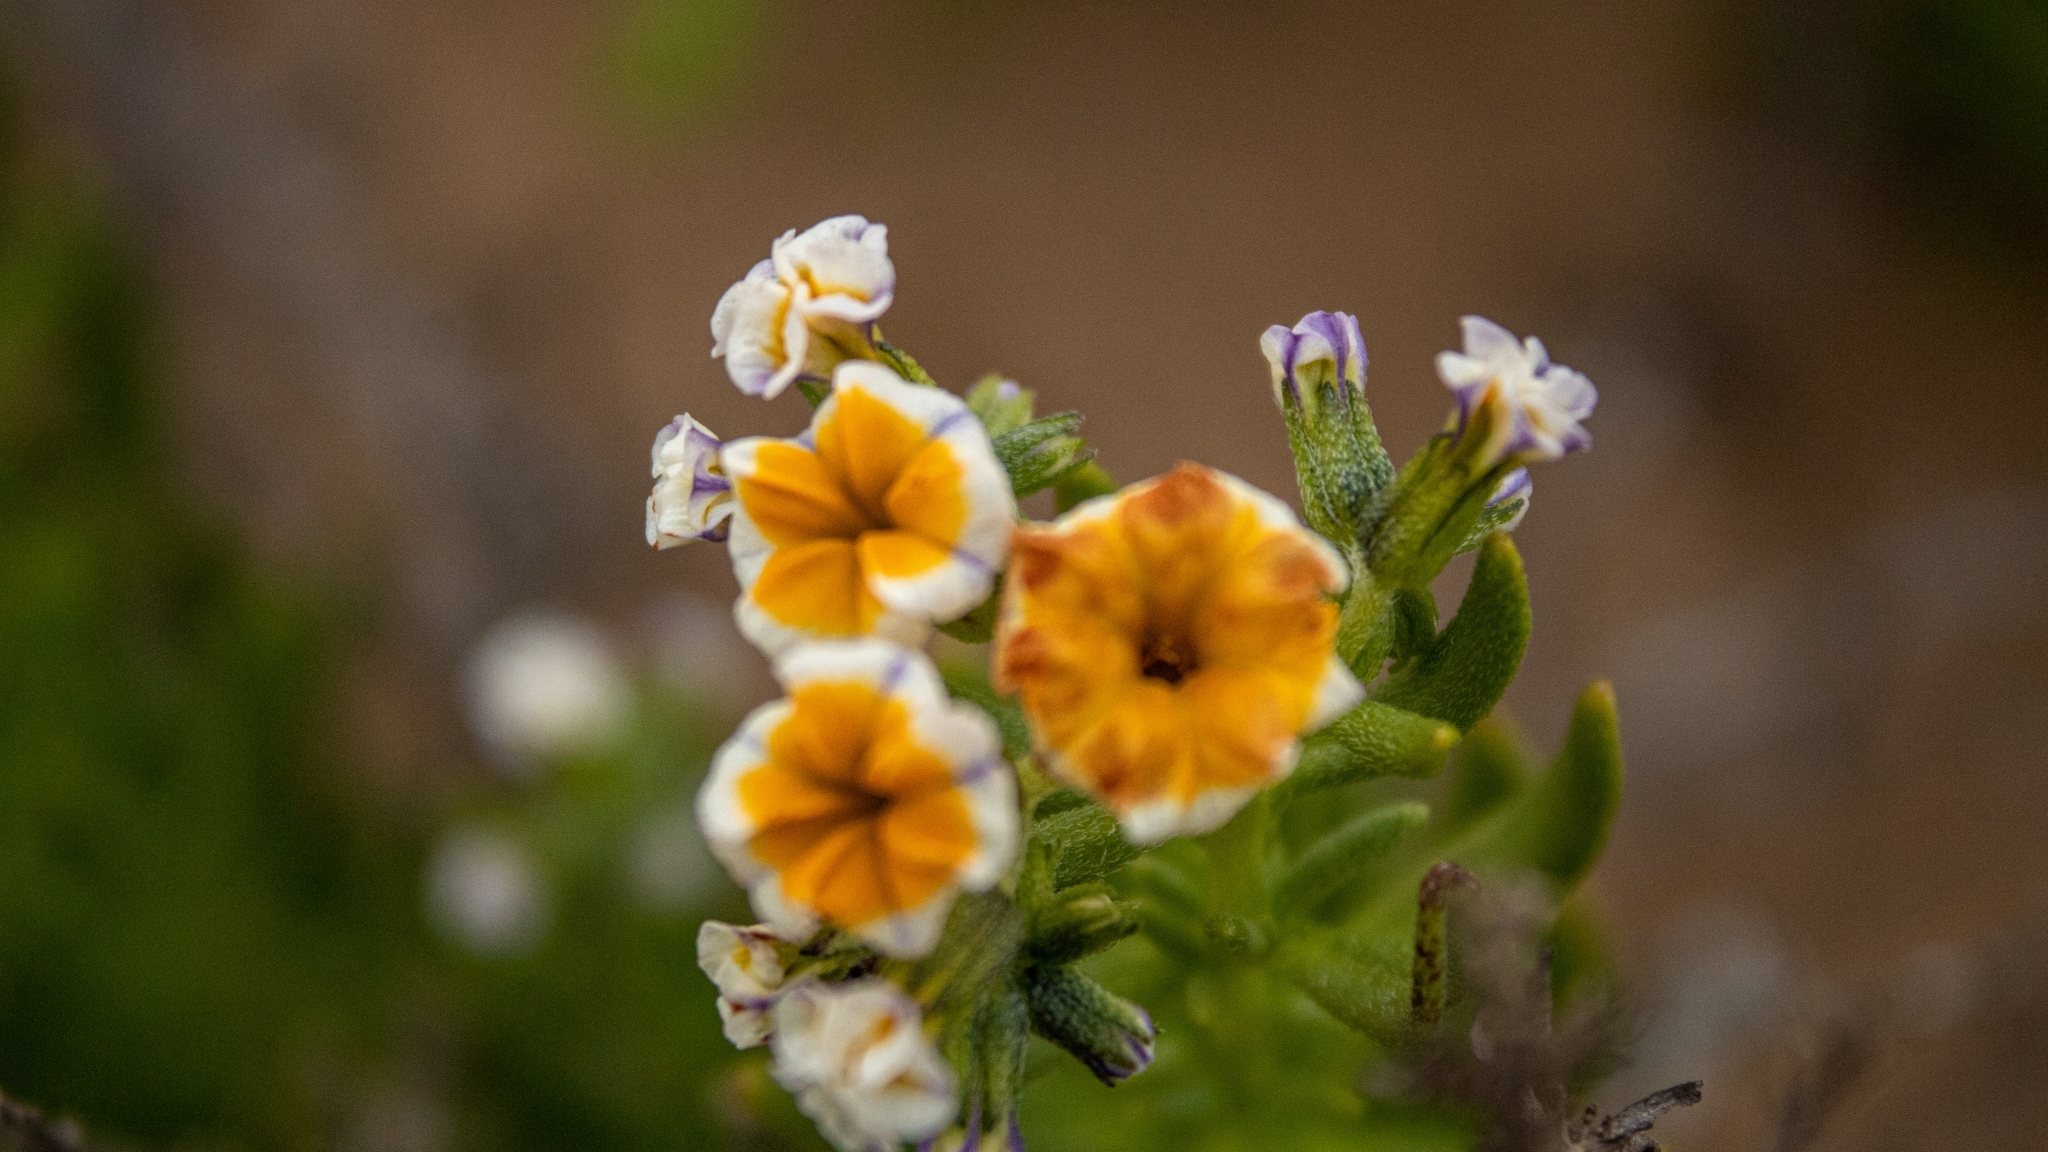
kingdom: Plantae
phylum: Tracheophyta
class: Magnoliopsida
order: Boraginales
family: Heliotropiaceae
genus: Heliotropium
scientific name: Heliotropium floridum
